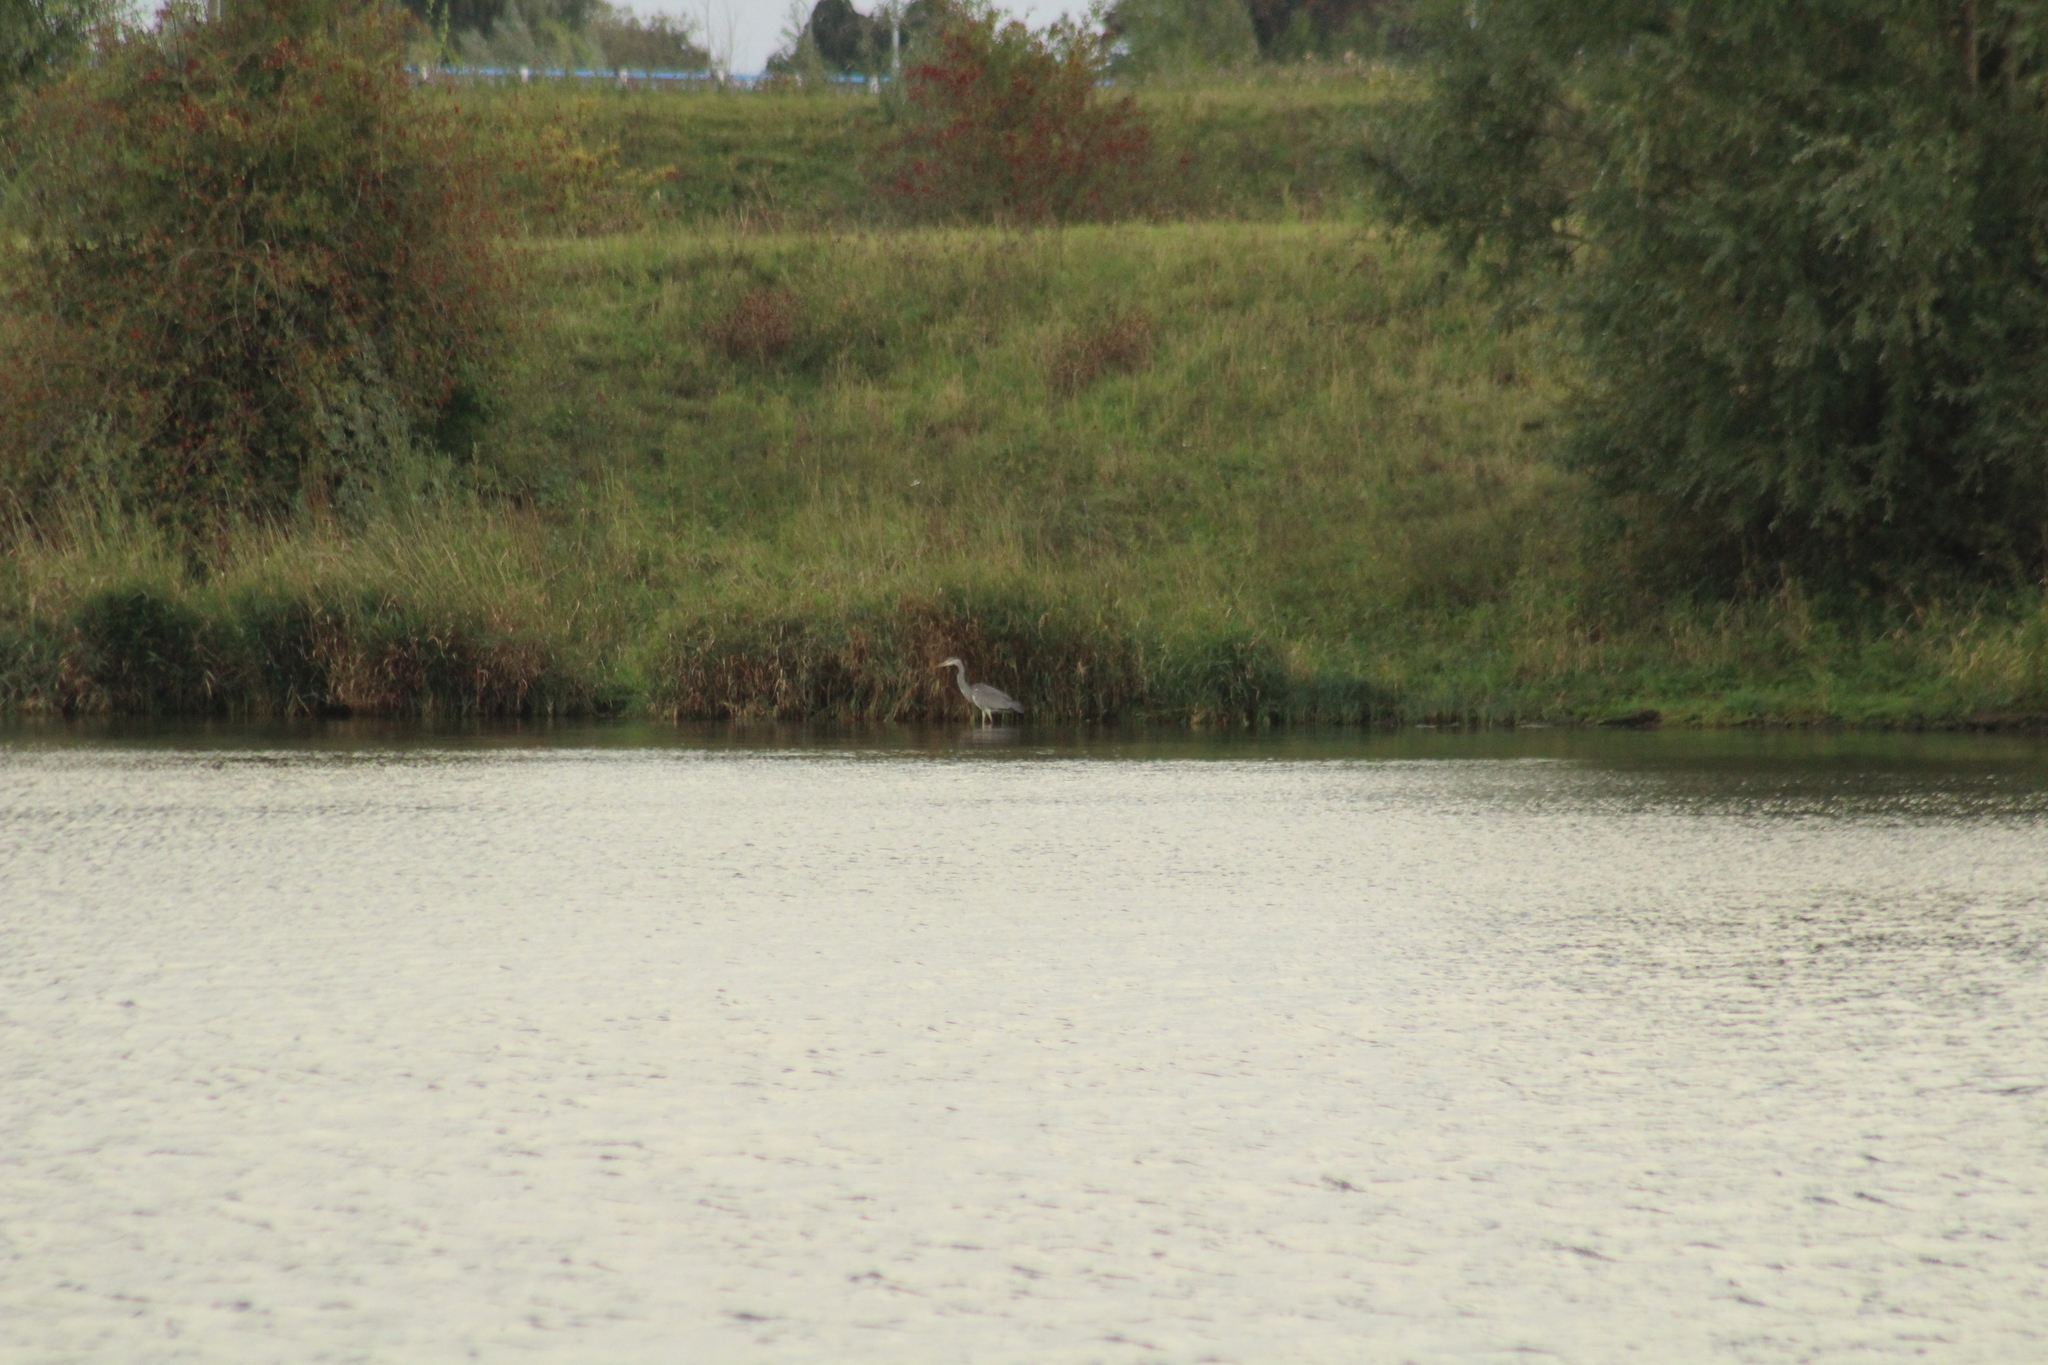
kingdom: Animalia
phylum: Chordata
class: Aves
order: Pelecaniformes
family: Ardeidae
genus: Ardea
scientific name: Ardea cinerea
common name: Grey heron
